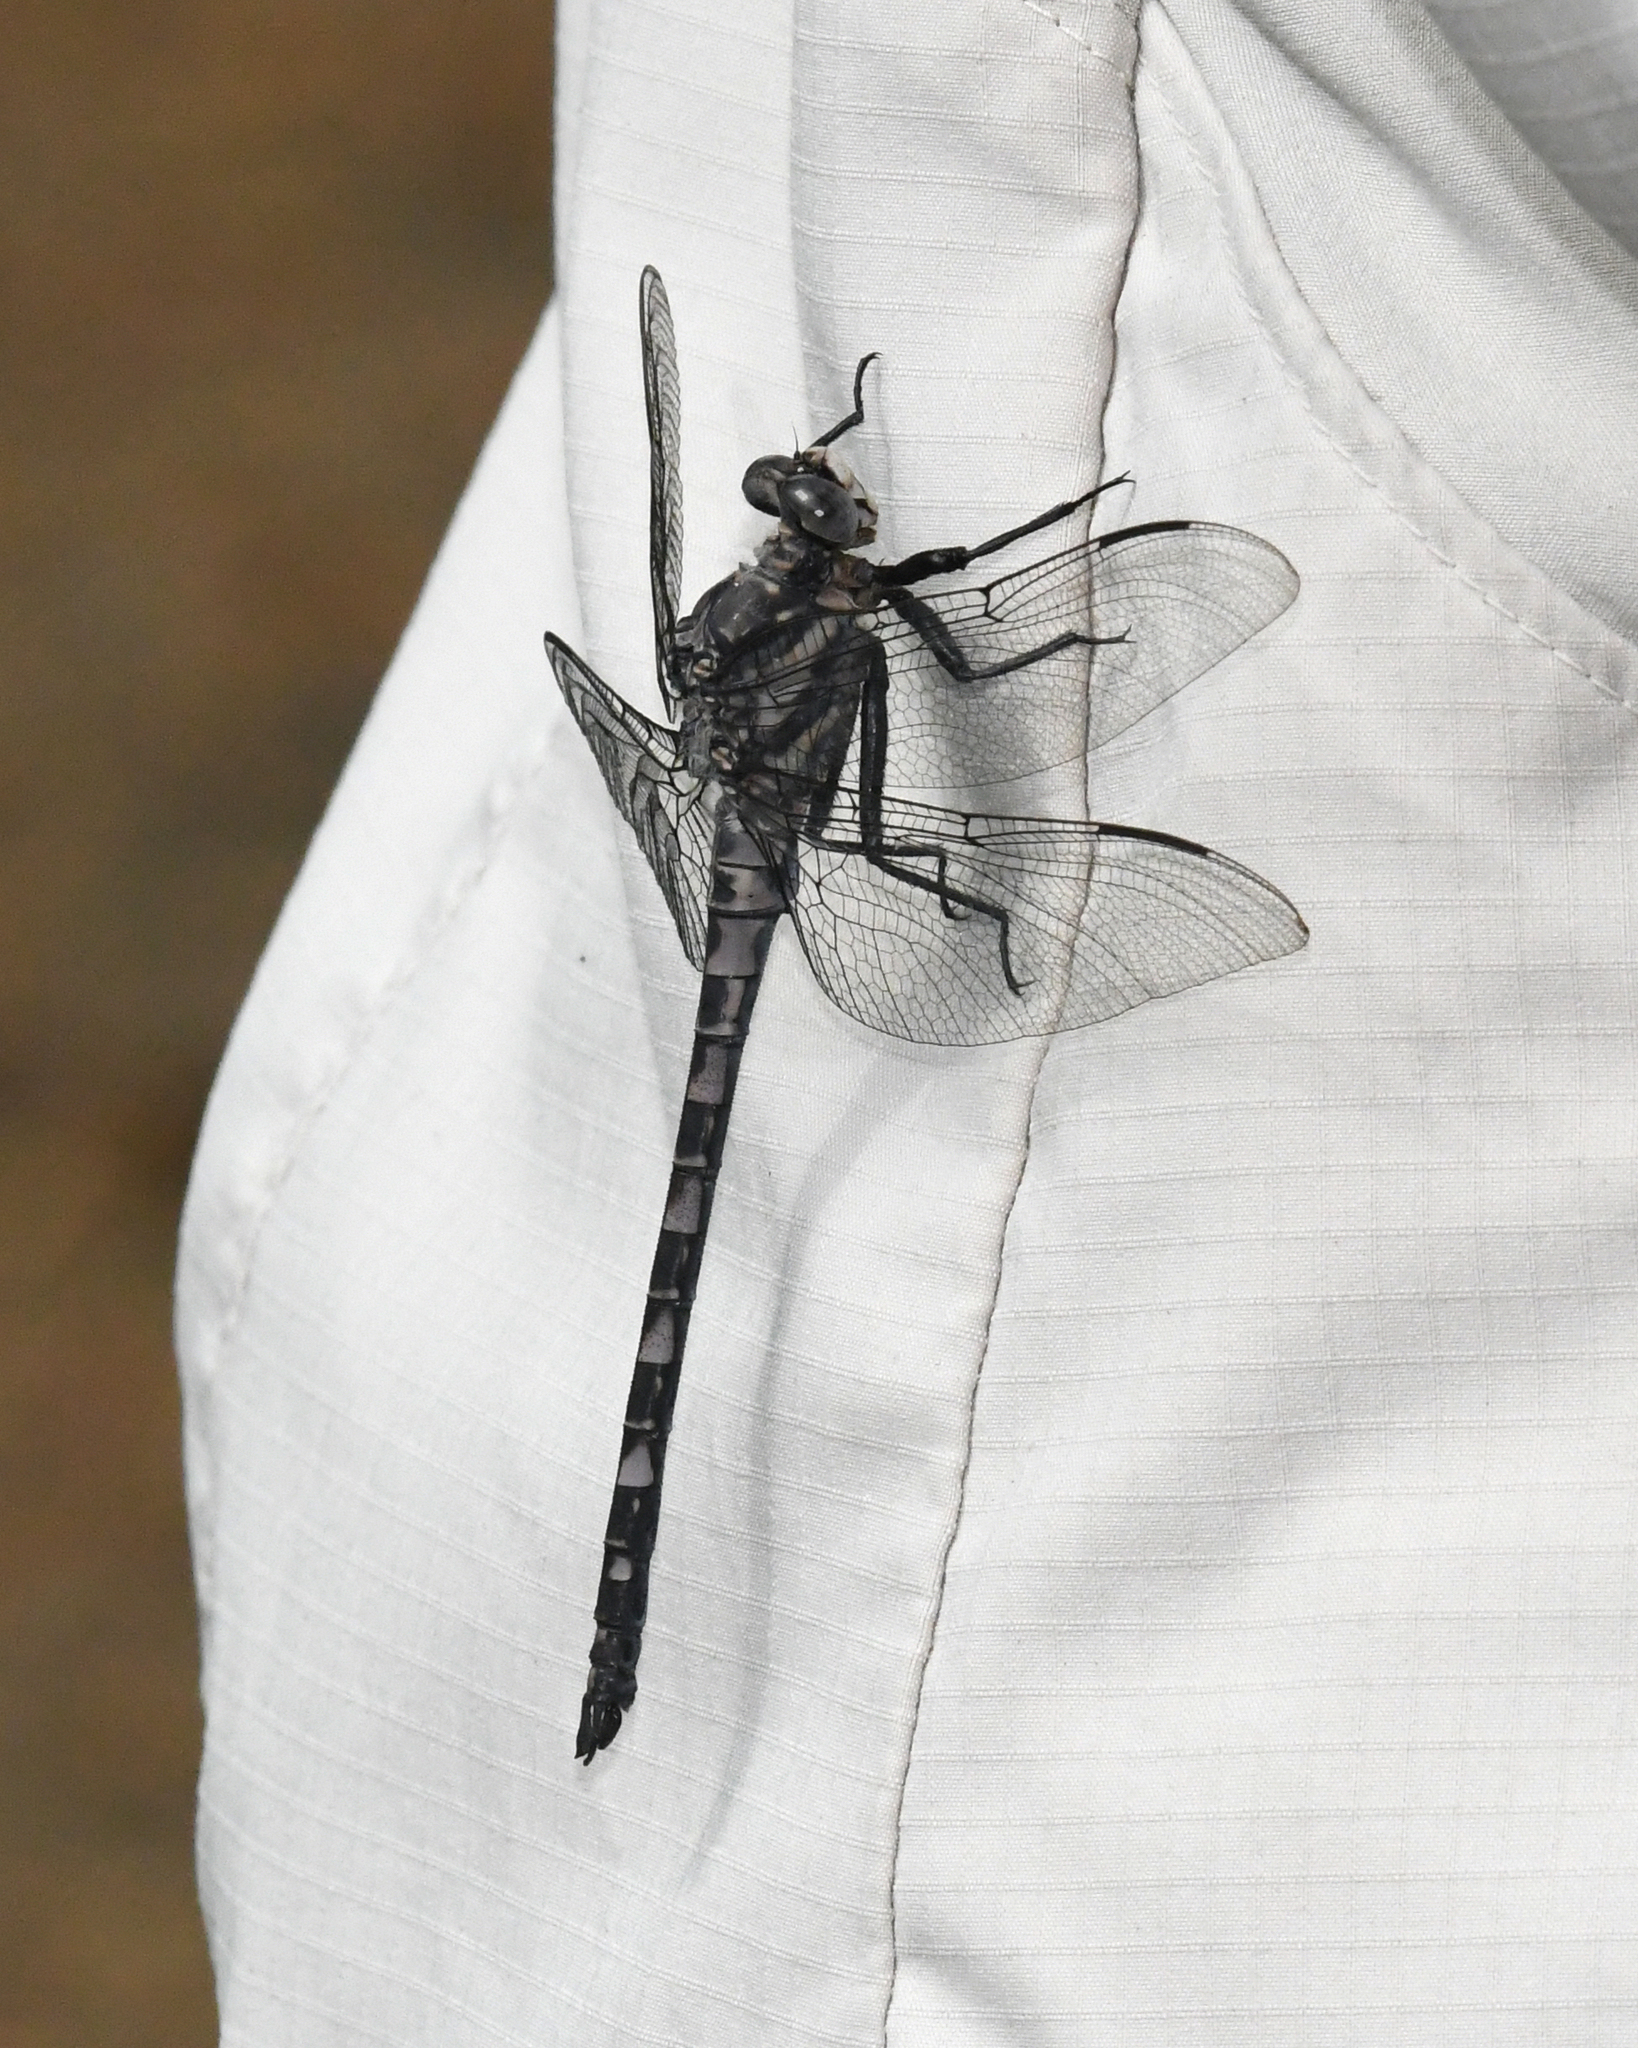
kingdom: Animalia
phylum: Arthropoda
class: Insecta
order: Odonata
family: Petaluridae
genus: Tachopteryx
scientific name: Tachopteryx thoreyi
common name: Gray petaltail
